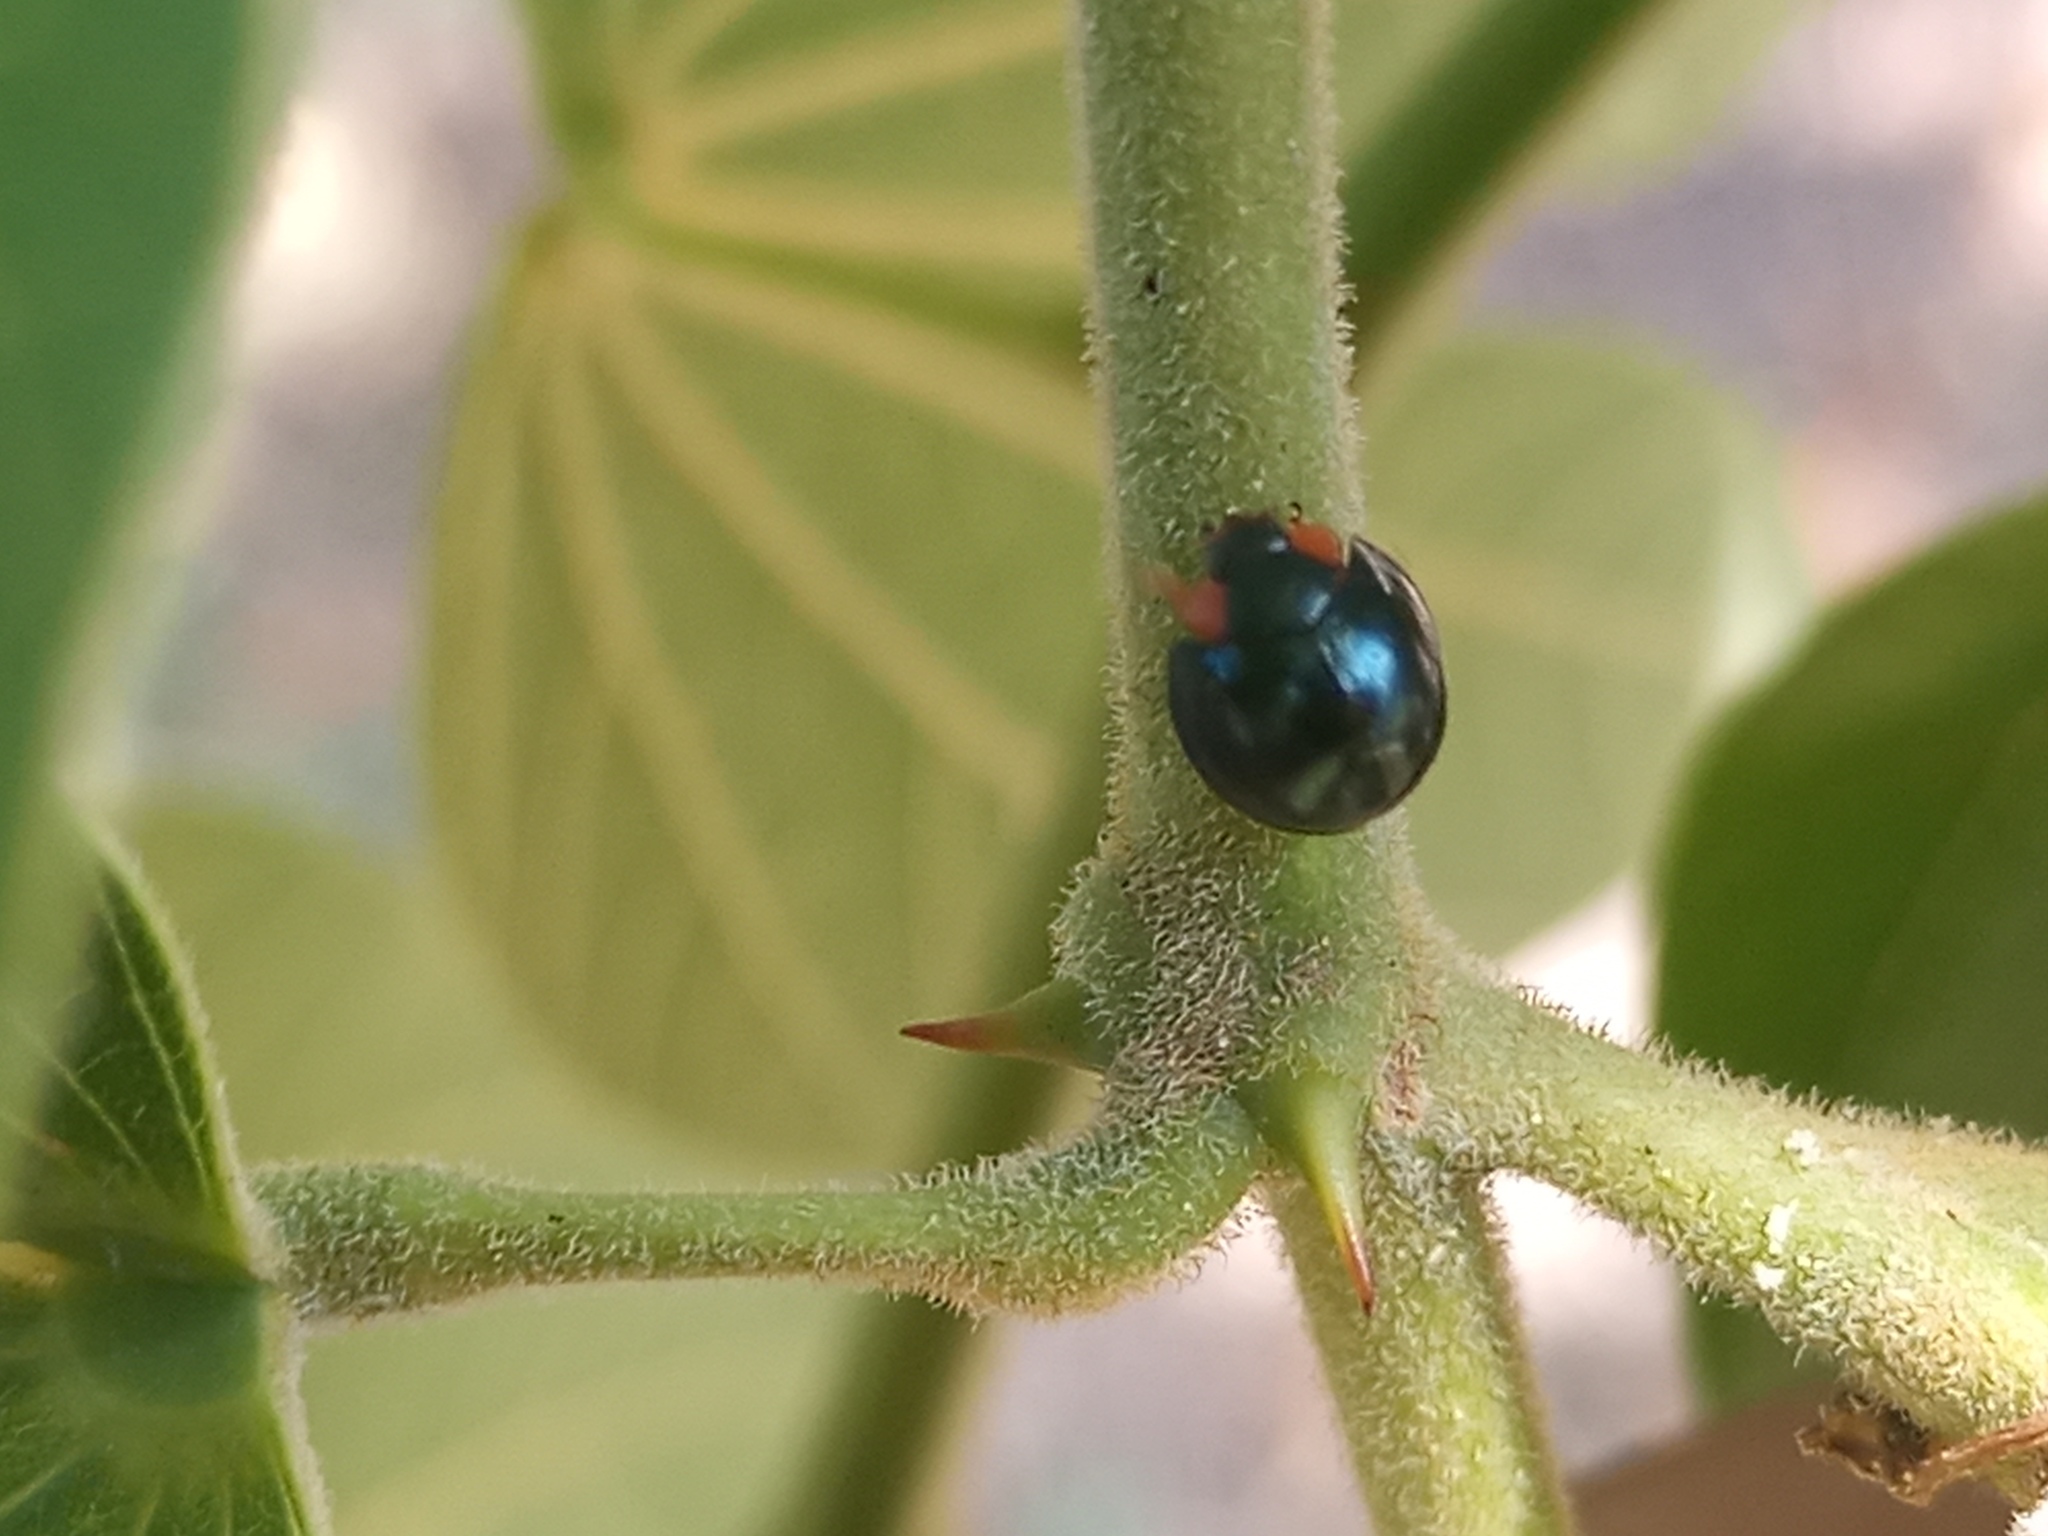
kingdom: Animalia
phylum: Arthropoda
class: Insecta
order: Coleoptera
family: Coccinellidae
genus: Curinus
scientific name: Curinus coeruleus
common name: Ladybird beetle
